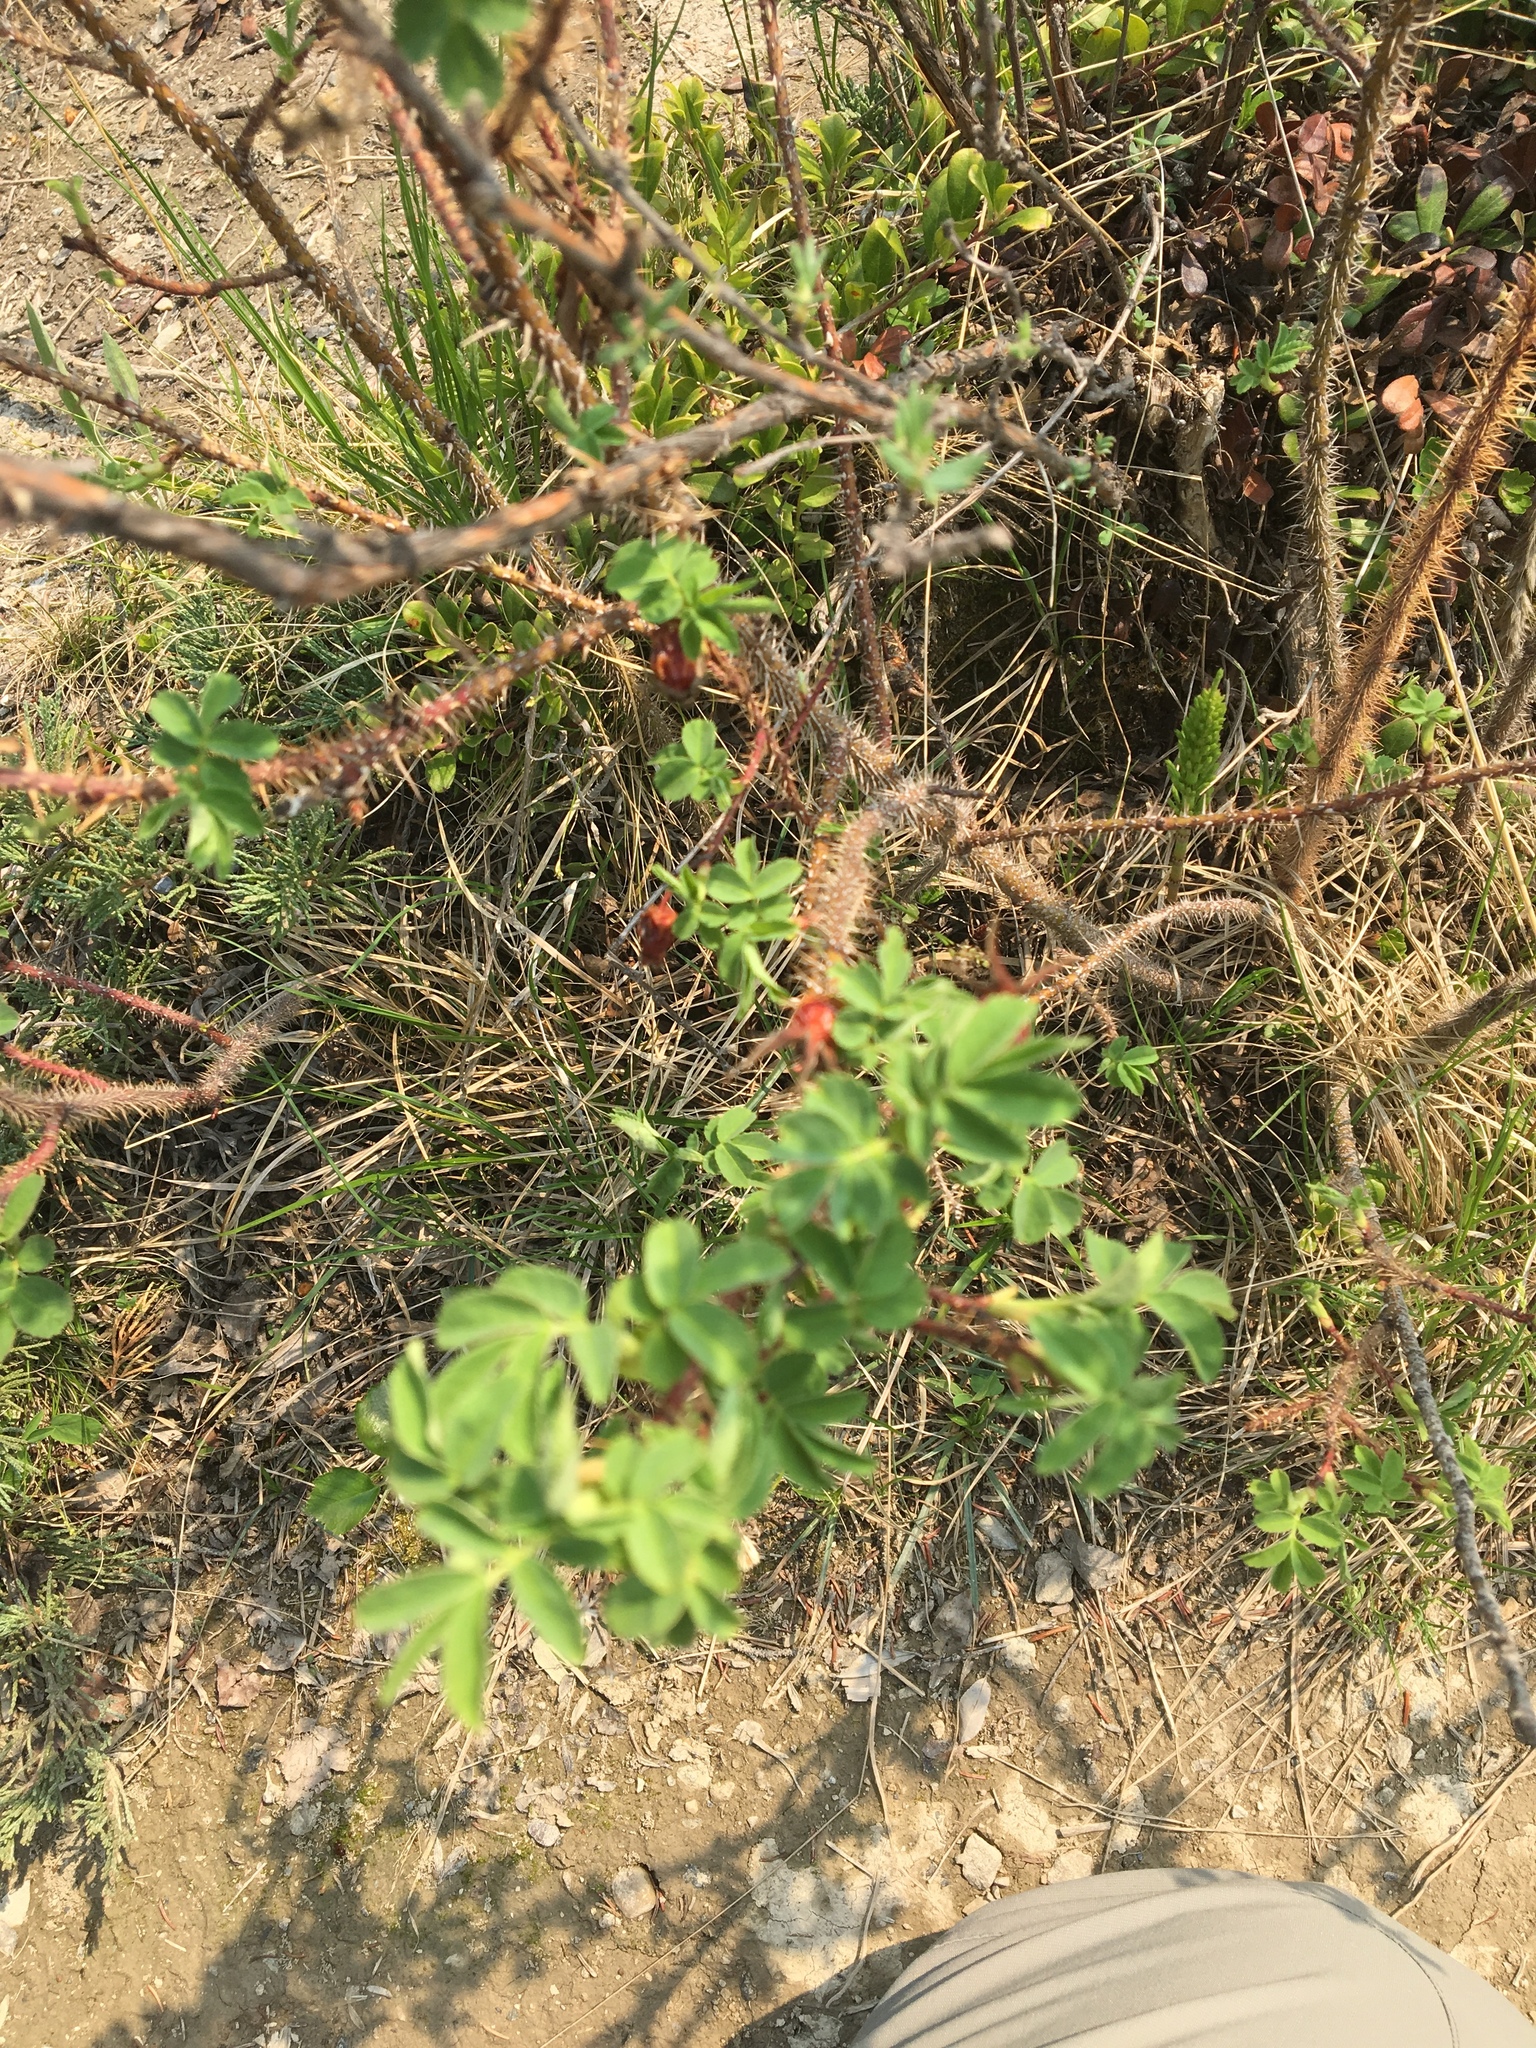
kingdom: Plantae
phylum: Tracheophyta
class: Magnoliopsida
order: Rosales
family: Rosaceae
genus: Rosa
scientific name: Rosa acicularis
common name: Prickly rose
